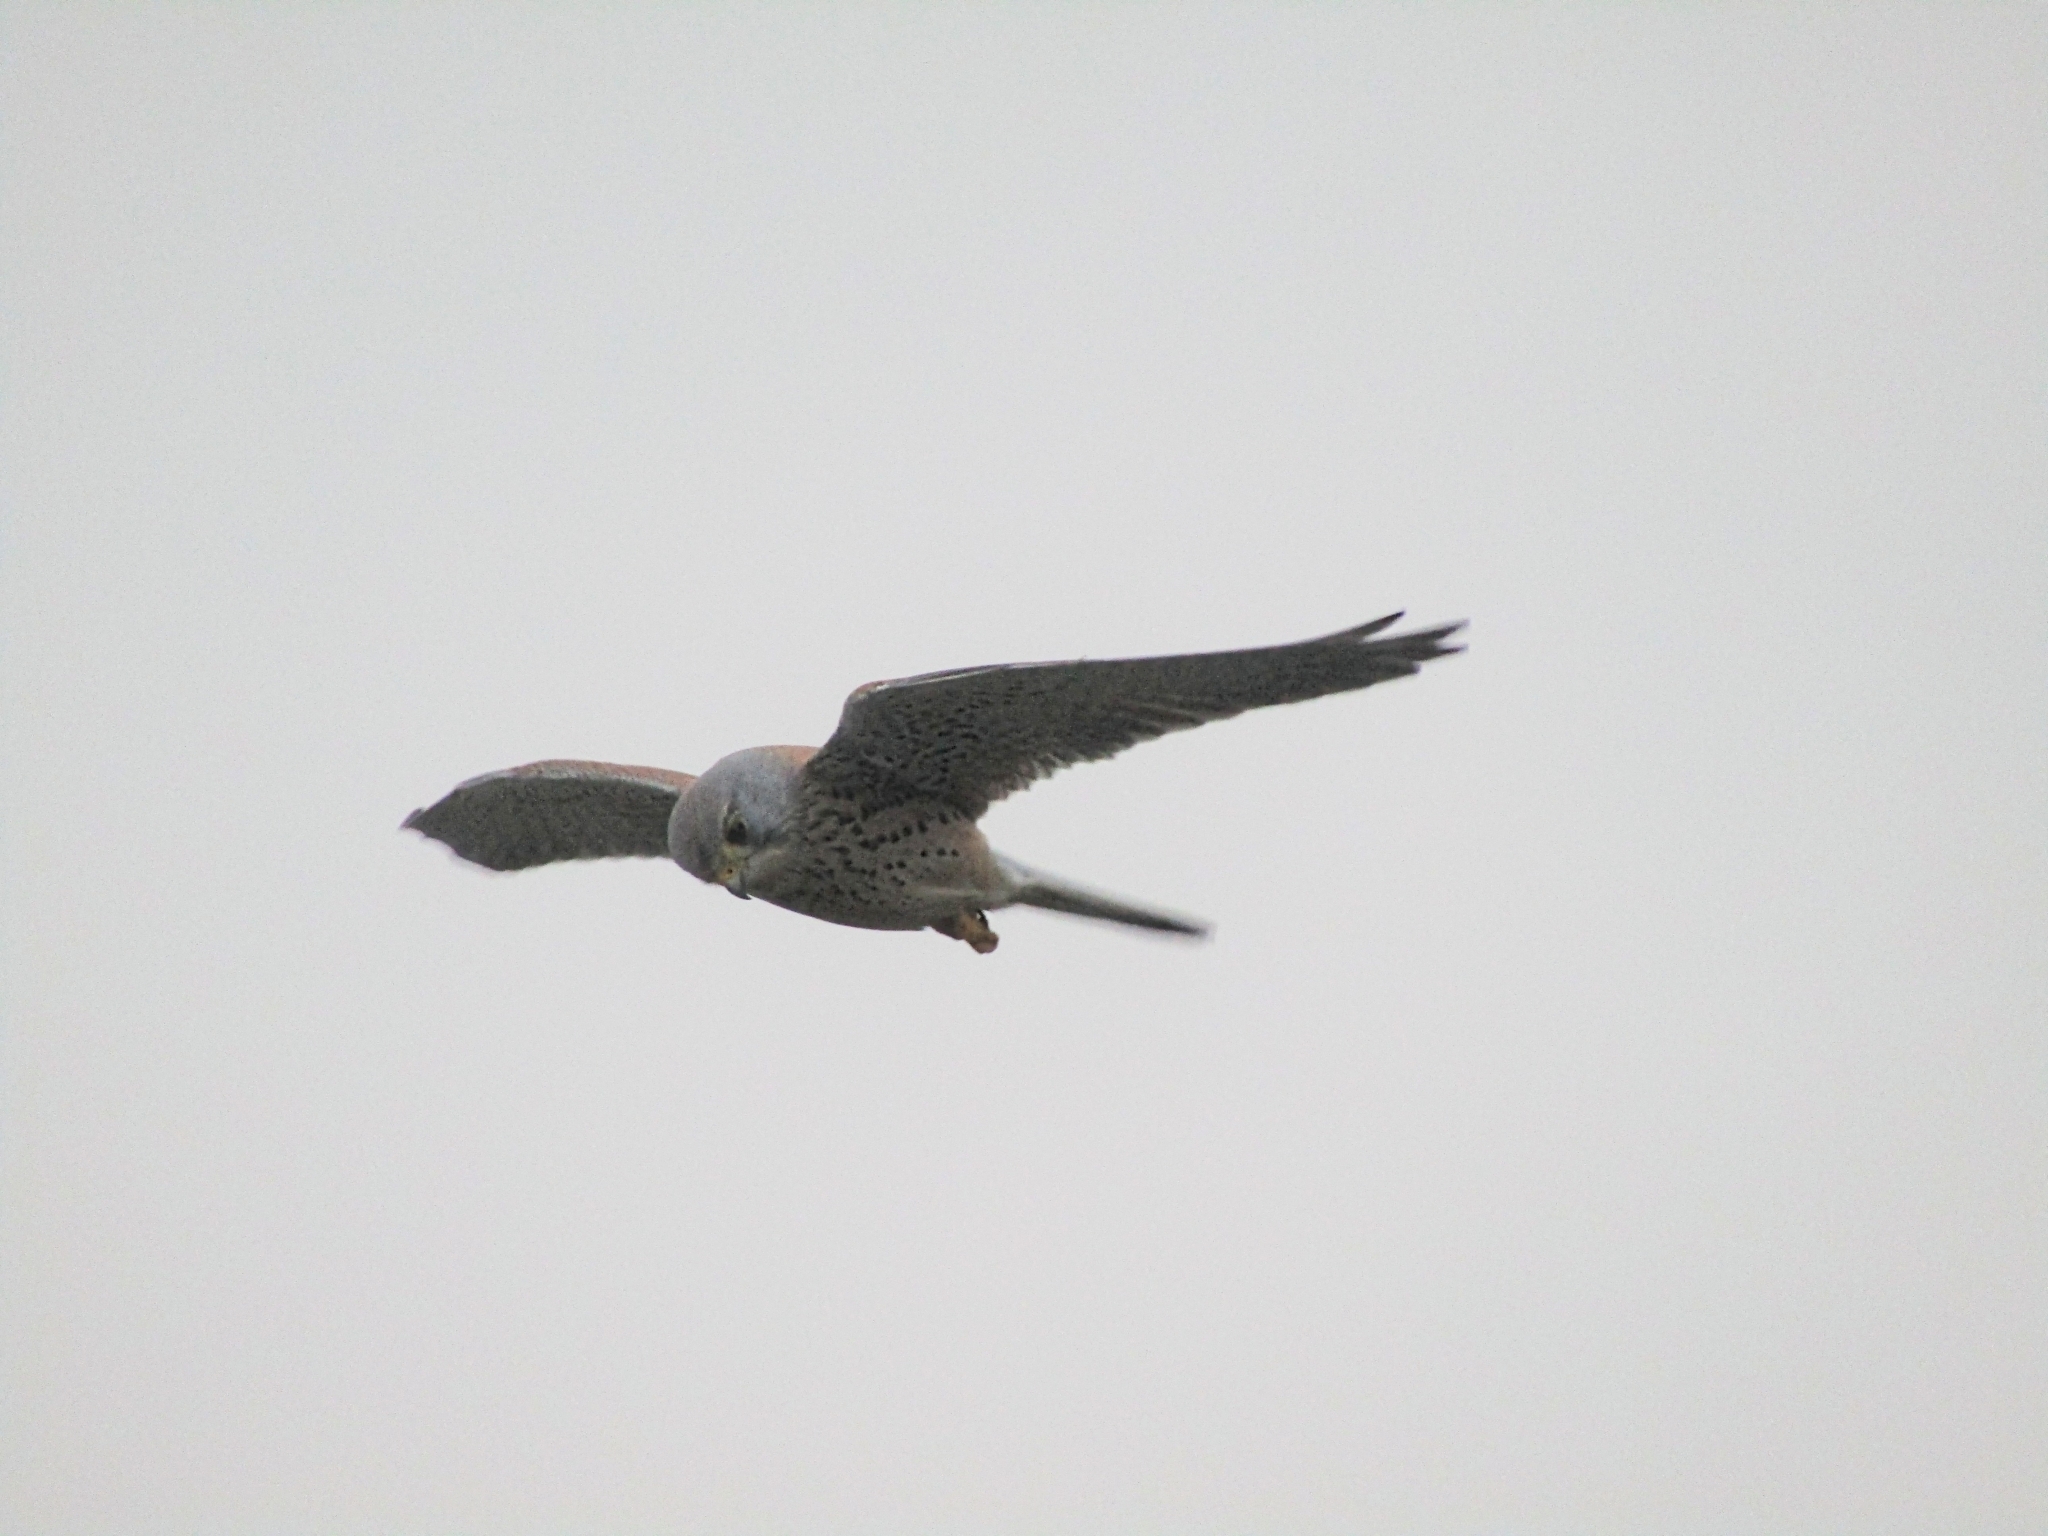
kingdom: Animalia
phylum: Chordata
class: Aves
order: Falconiformes
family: Falconidae
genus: Falco
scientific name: Falco tinnunculus
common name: Common kestrel
